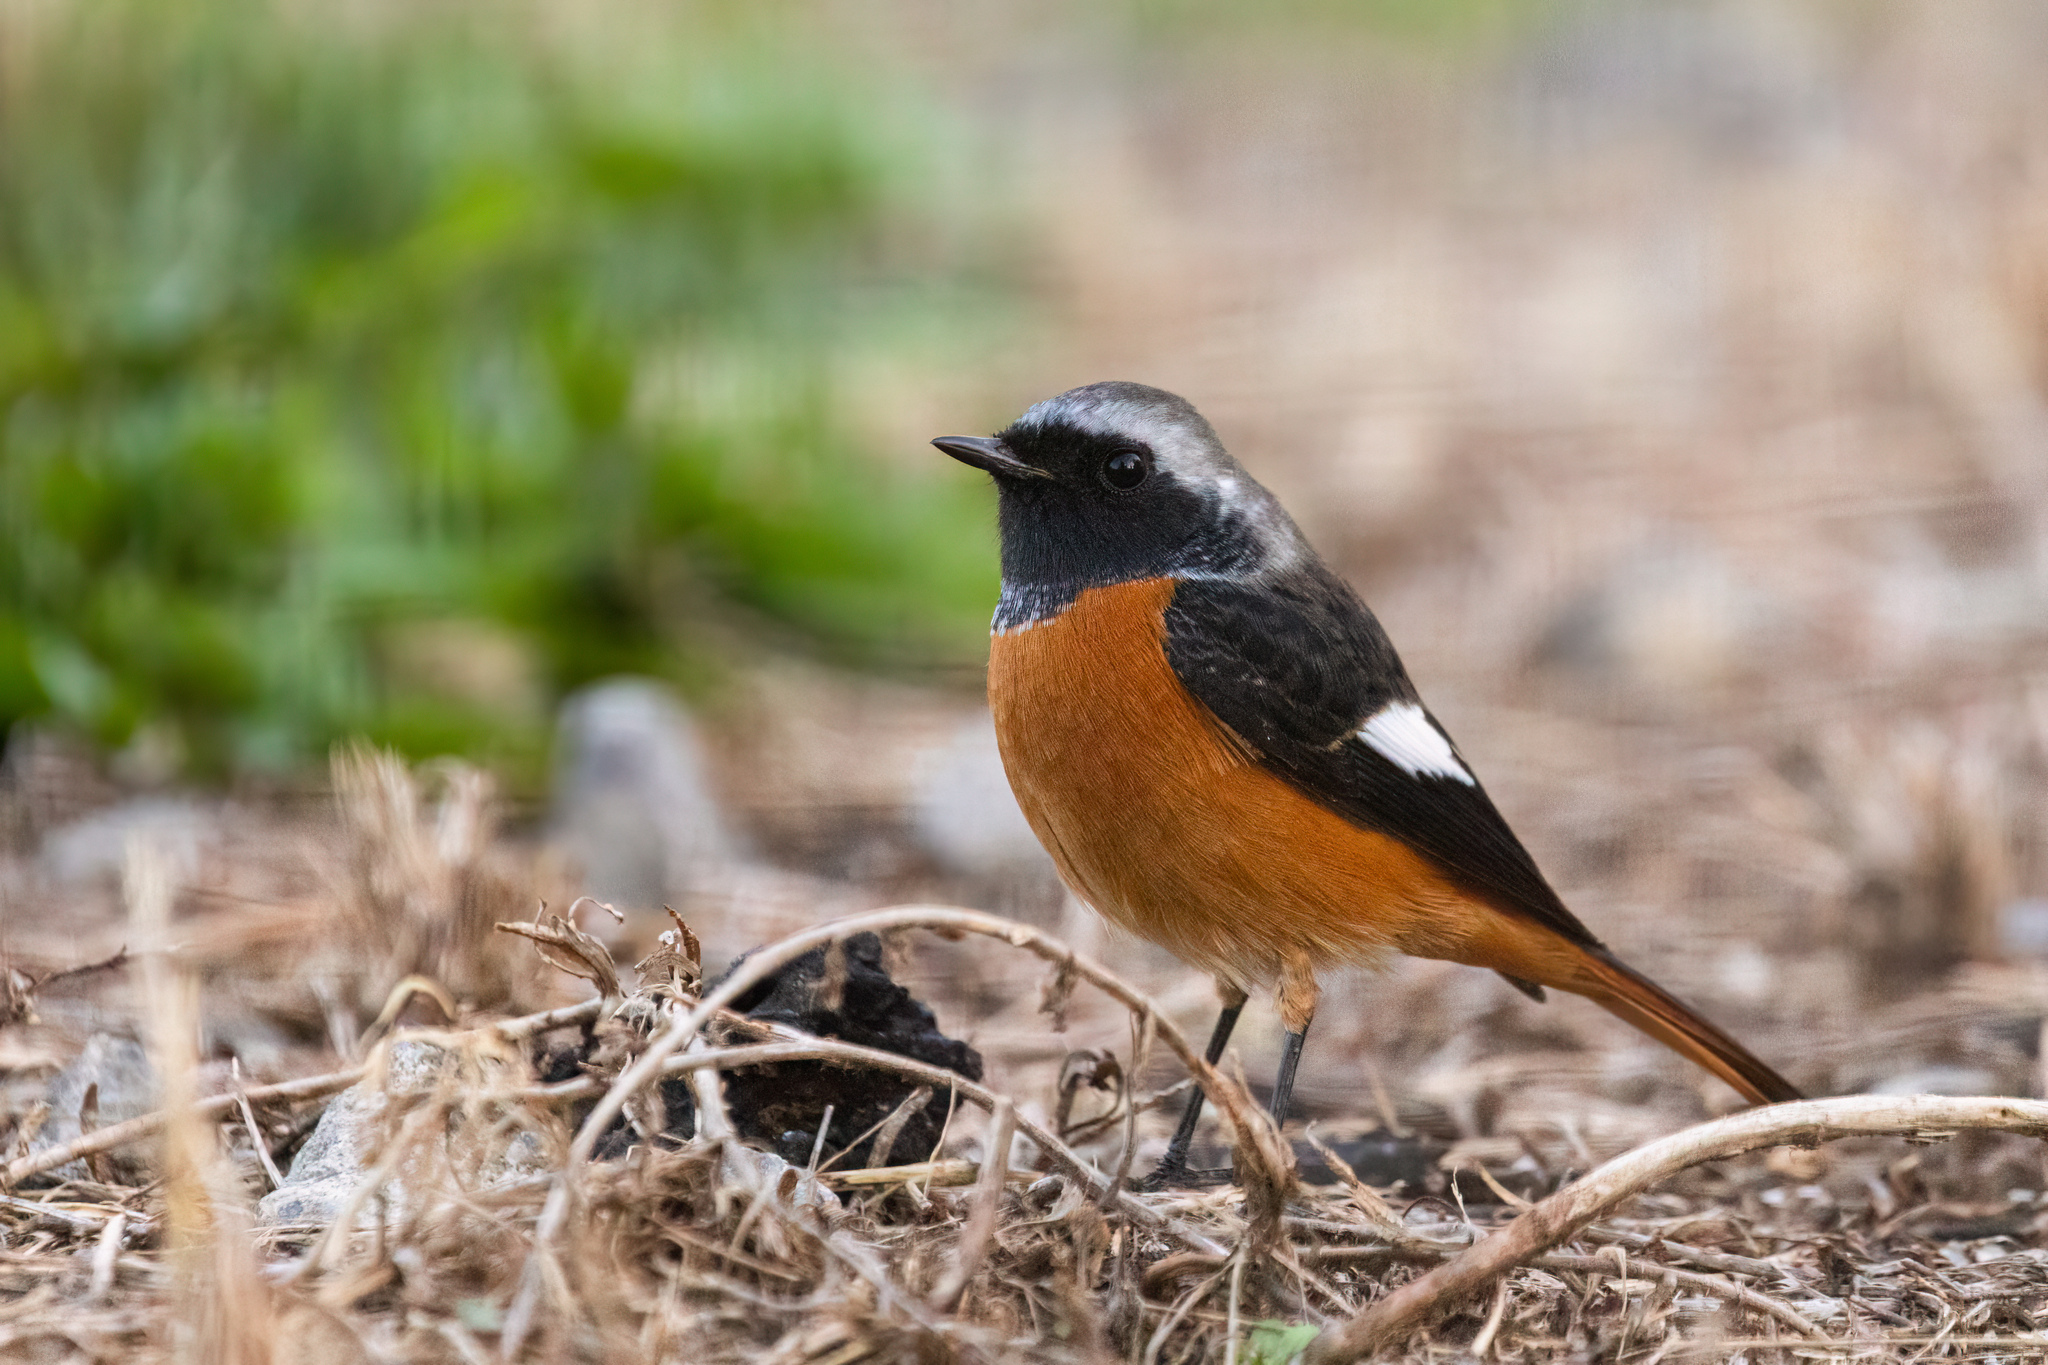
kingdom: Animalia
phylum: Chordata
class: Aves
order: Passeriformes
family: Muscicapidae
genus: Phoenicurus
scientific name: Phoenicurus auroreus
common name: Daurian redstart
